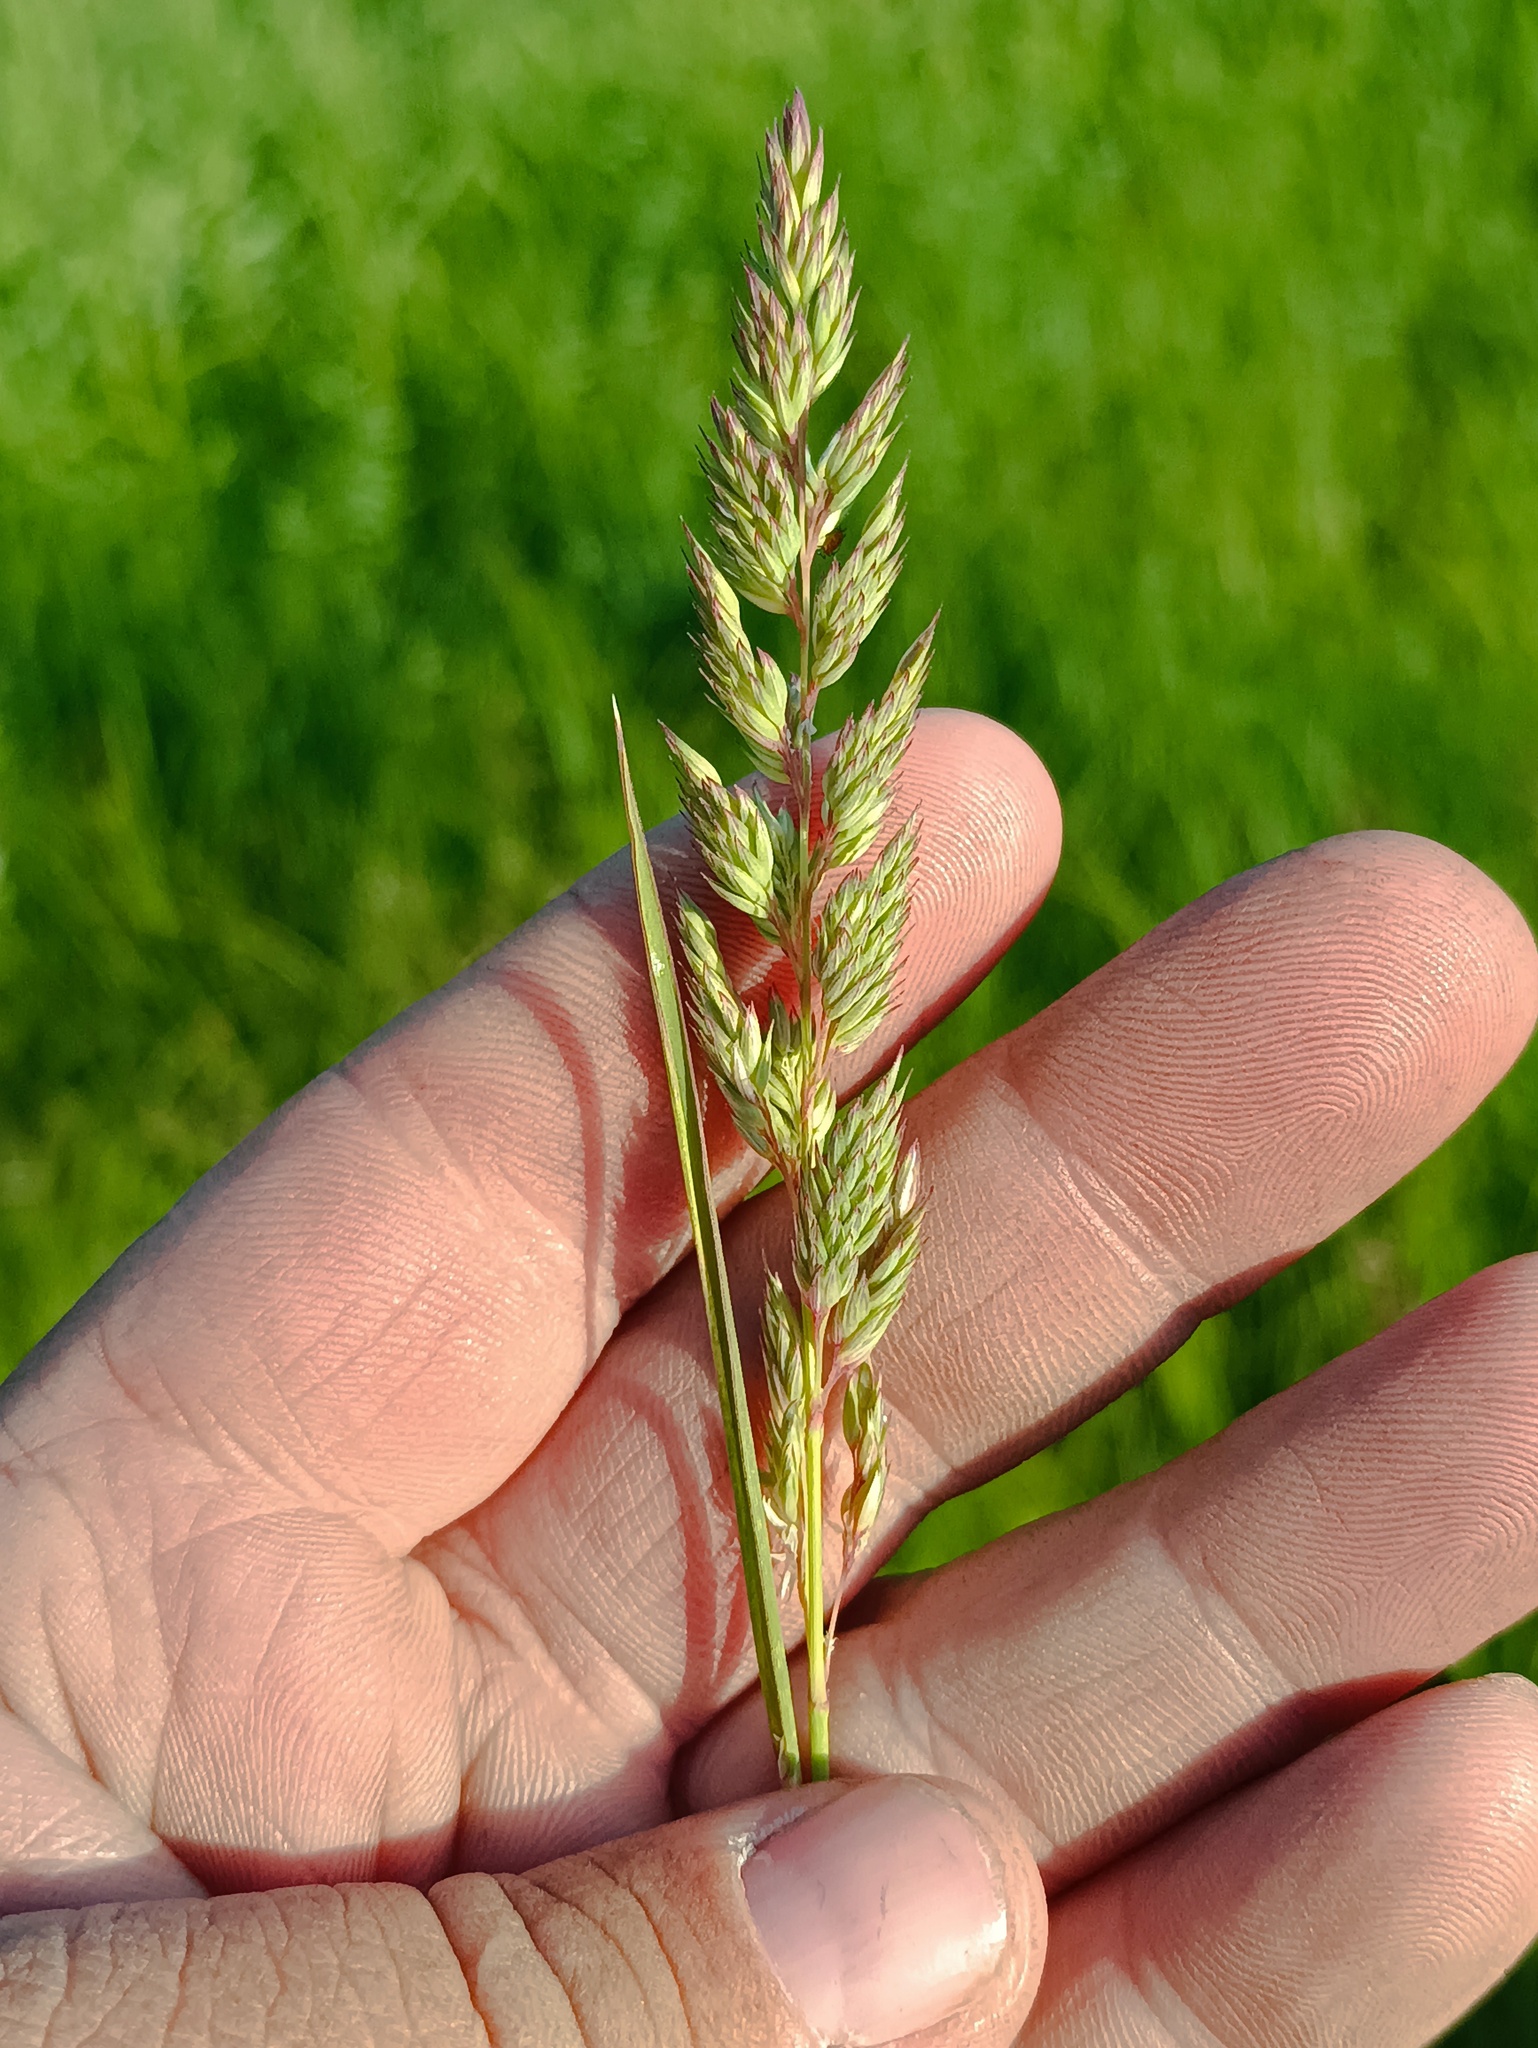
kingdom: Plantae
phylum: Tracheophyta
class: Liliopsida
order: Poales
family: Poaceae
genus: Dactylis
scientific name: Dactylis glomerata
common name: Orchardgrass
